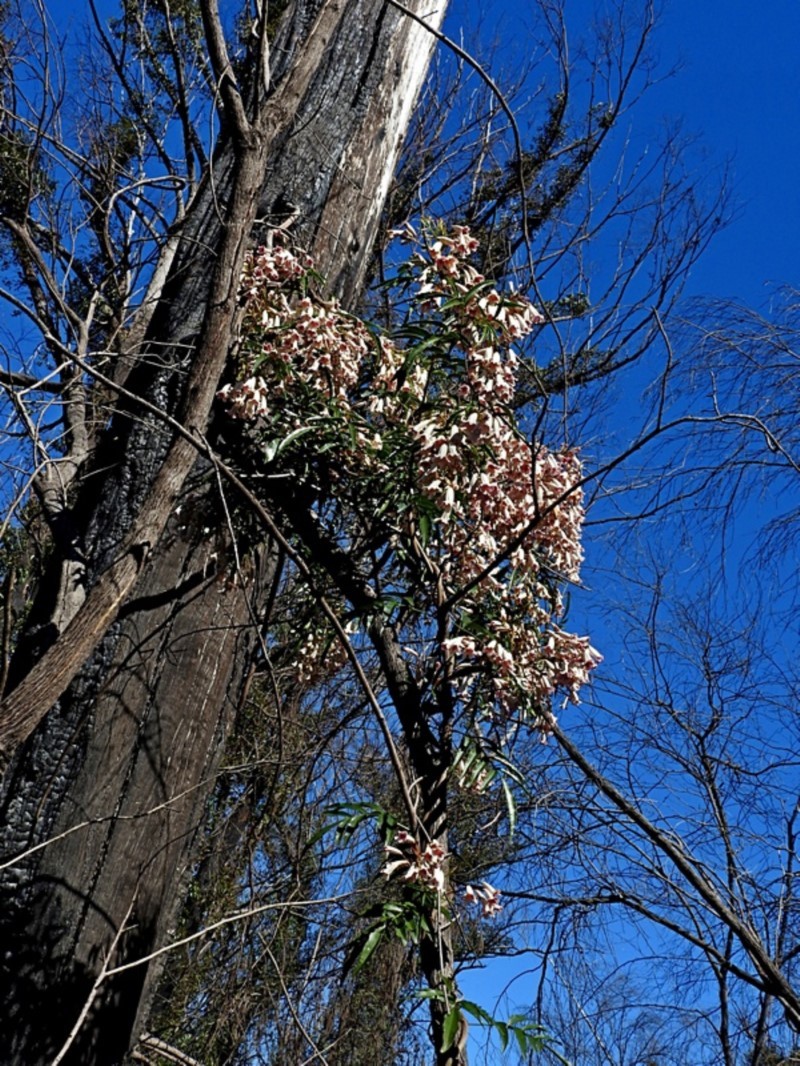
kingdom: Plantae
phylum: Tracheophyta
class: Magnoliopsida
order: Lamiales
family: Bignoniaceae
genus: Pandorea
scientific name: Pandorea pandorana
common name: Wonga-wonga-vine
